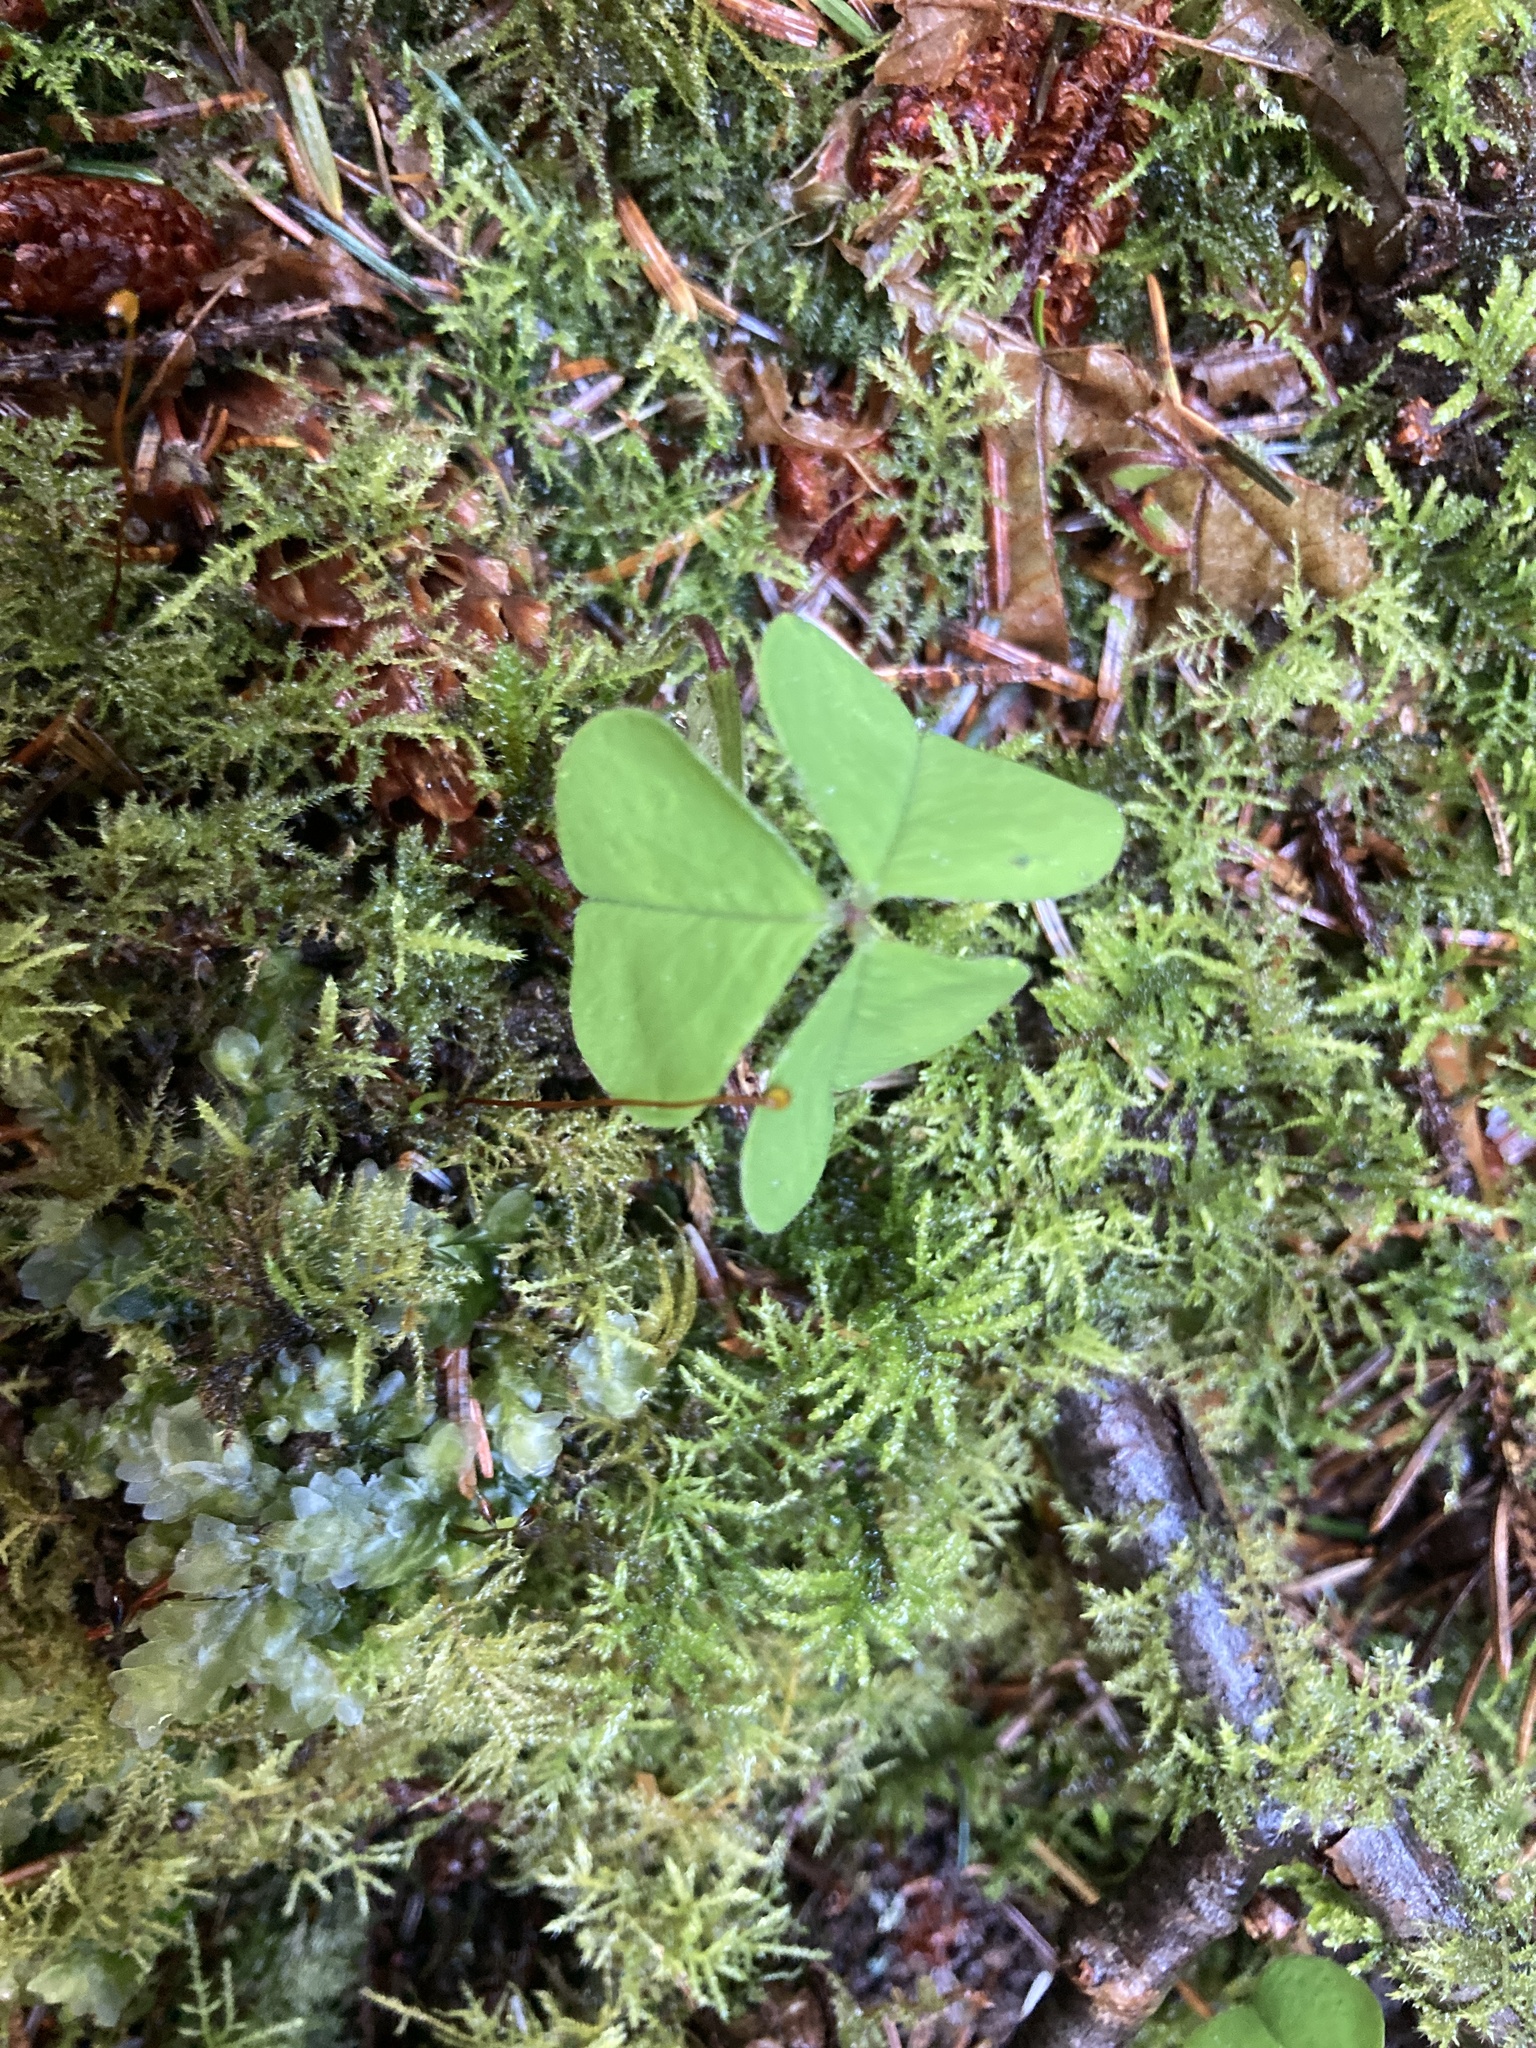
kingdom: Plantae
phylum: Tracheophyta
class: Magnoliopsida
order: Oxalidales
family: Oxalidaceae
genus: Oxalis
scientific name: Oxalis oregana
